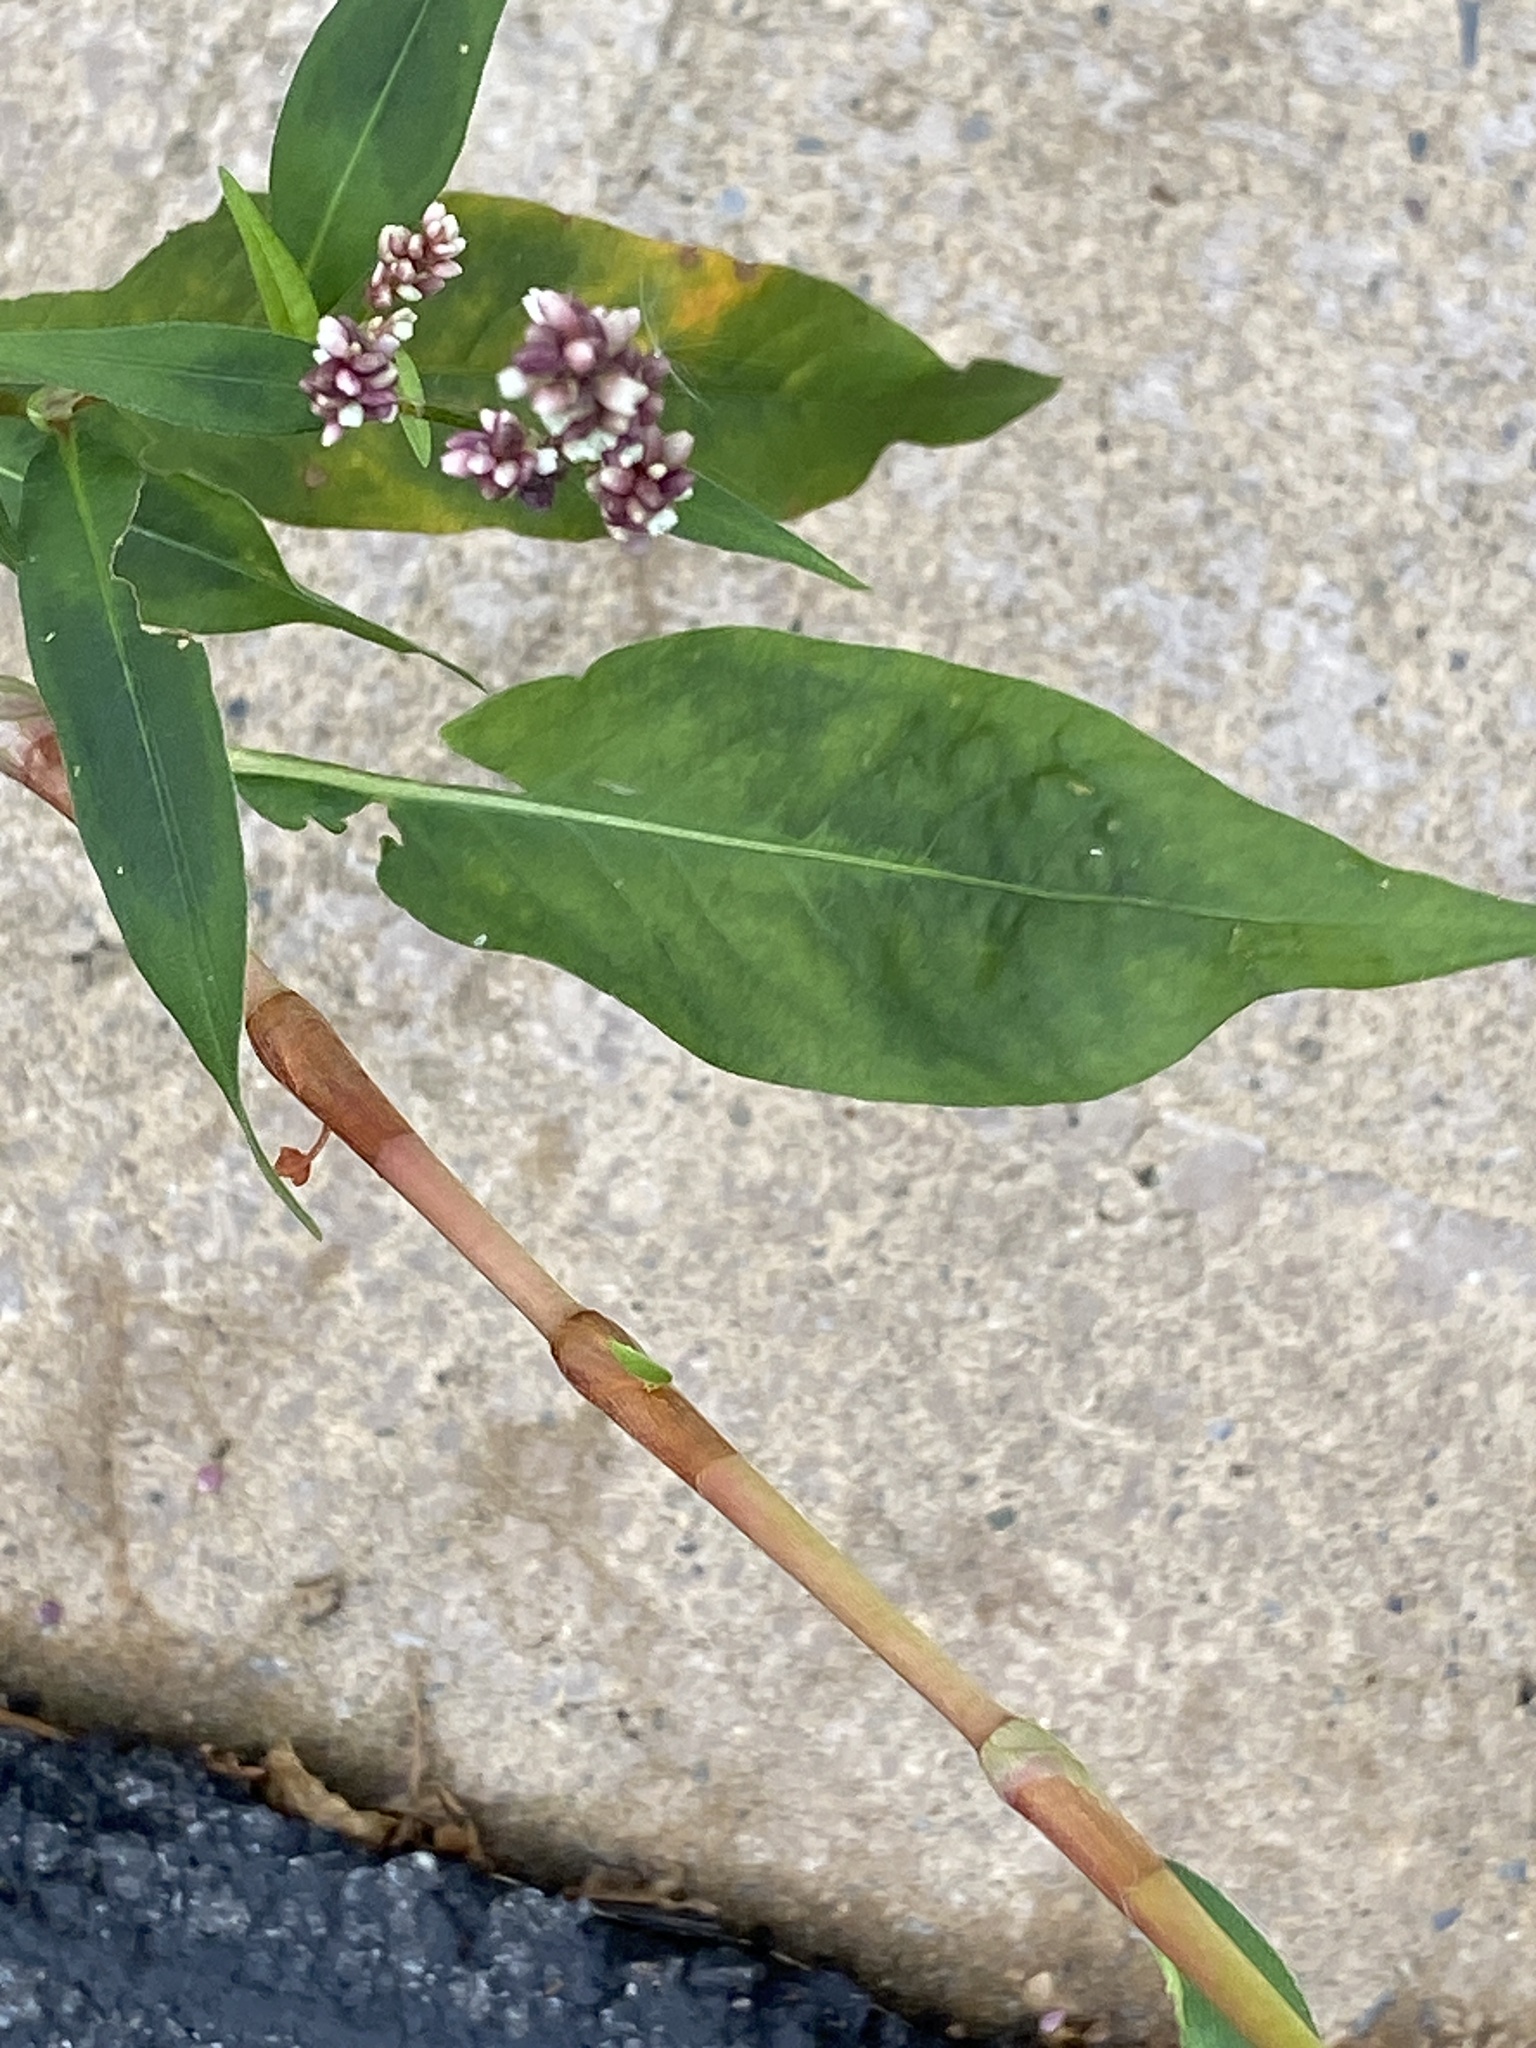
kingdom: Plantae
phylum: Tracheophyta
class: Magnoliopsida
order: Caryophyllales
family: Polygonaceae
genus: Persicaria
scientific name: Persicaria extremiorientalis
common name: Far-eastern smartweed
